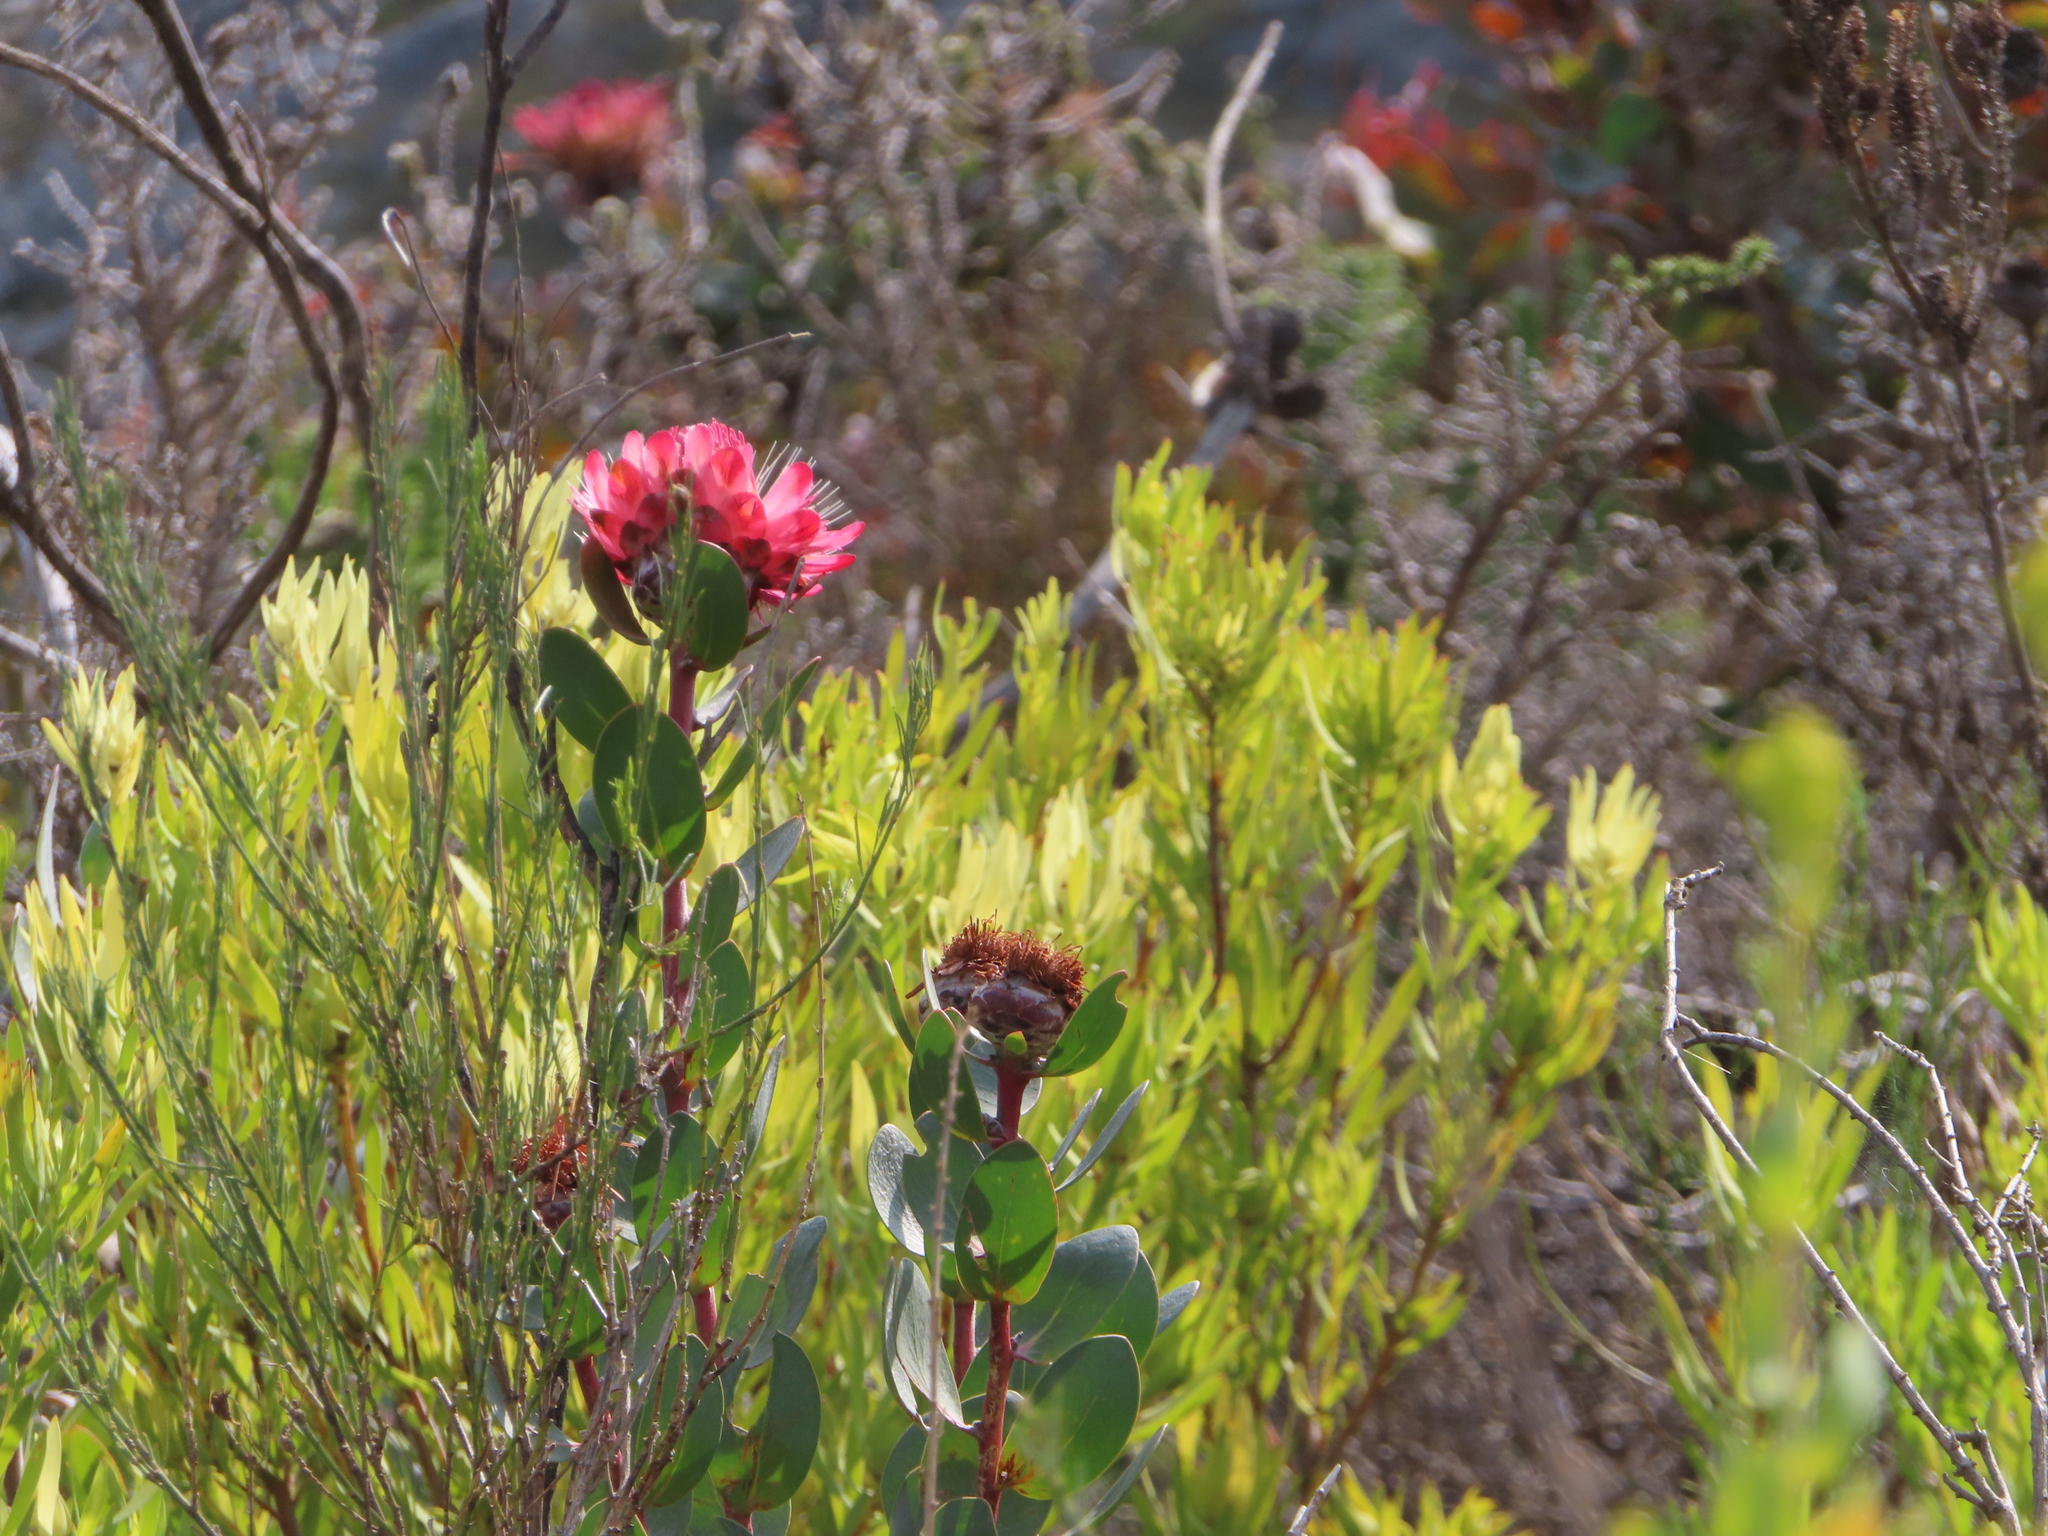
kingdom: Plantae
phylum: Tracheophyta
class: Magnoliopsida
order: Proteales
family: Proteaceae
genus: Protea
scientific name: Protea punctata
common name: Water sugarbush
